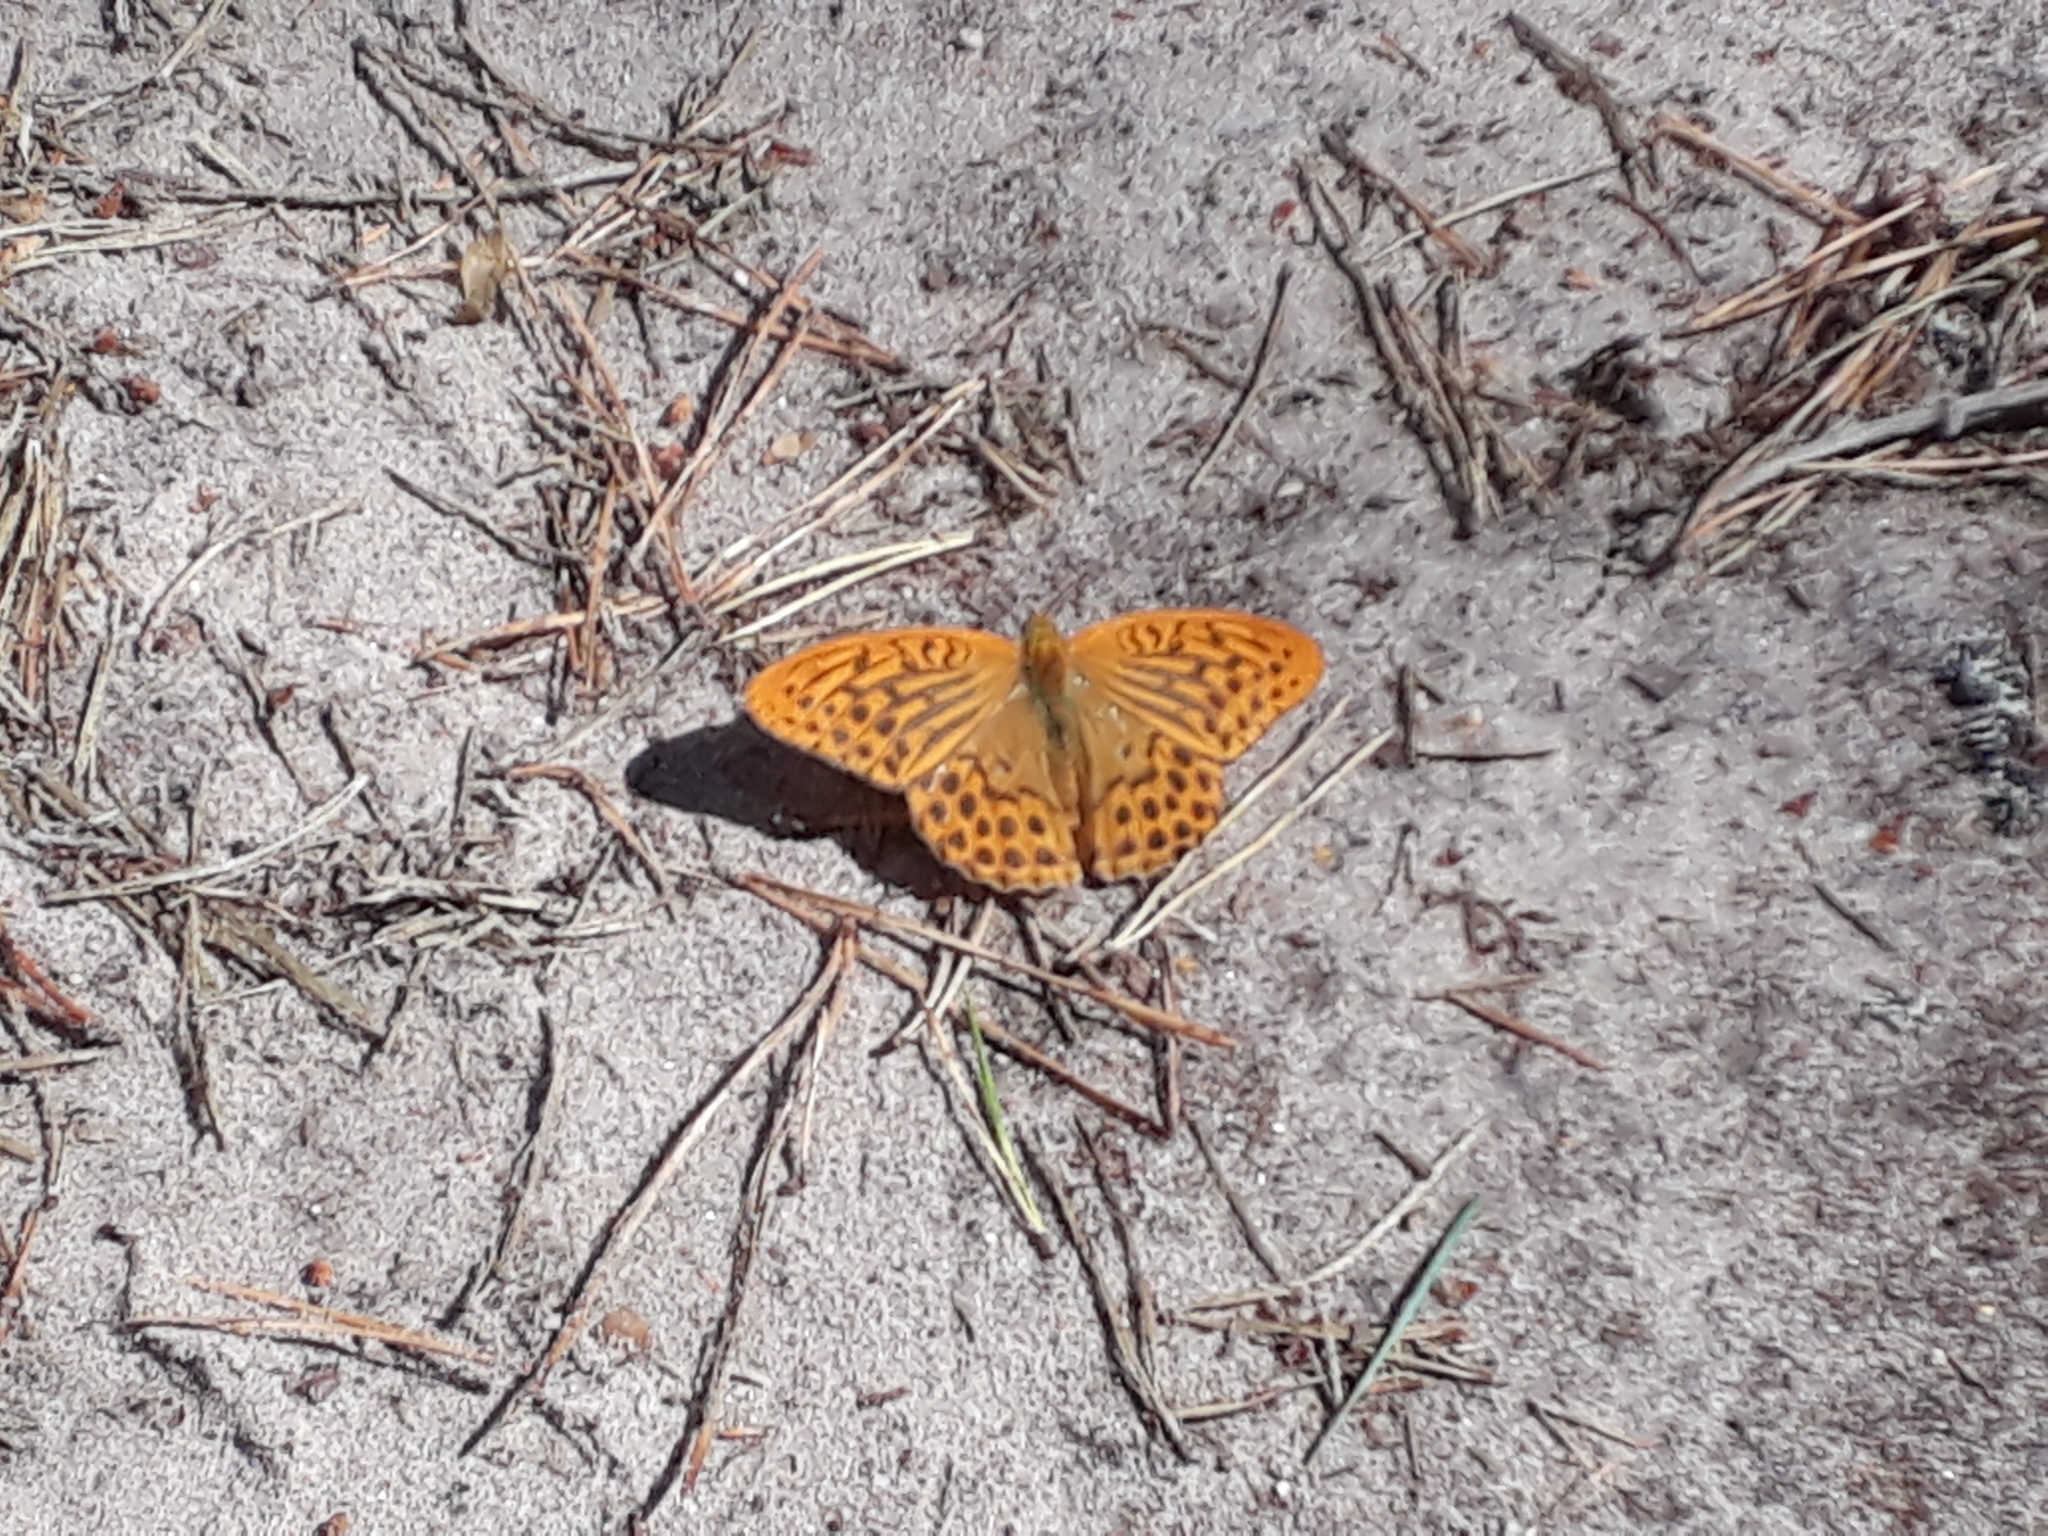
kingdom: Animalia
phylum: Arthropoda
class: Insecta
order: Lepidoptera
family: Nymphalidae
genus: Argynnis
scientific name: Argynnis paphia
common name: Silver-washed fritillary
